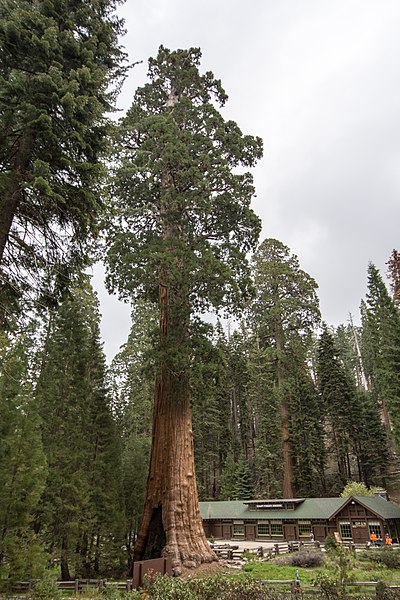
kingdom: Plantae
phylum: Tracheophyta
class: Pinopsida
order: Pinales
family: Cupressaceae
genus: Sequoiadendron
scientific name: Sequoiadendron giganteum
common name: Wellingtonia
